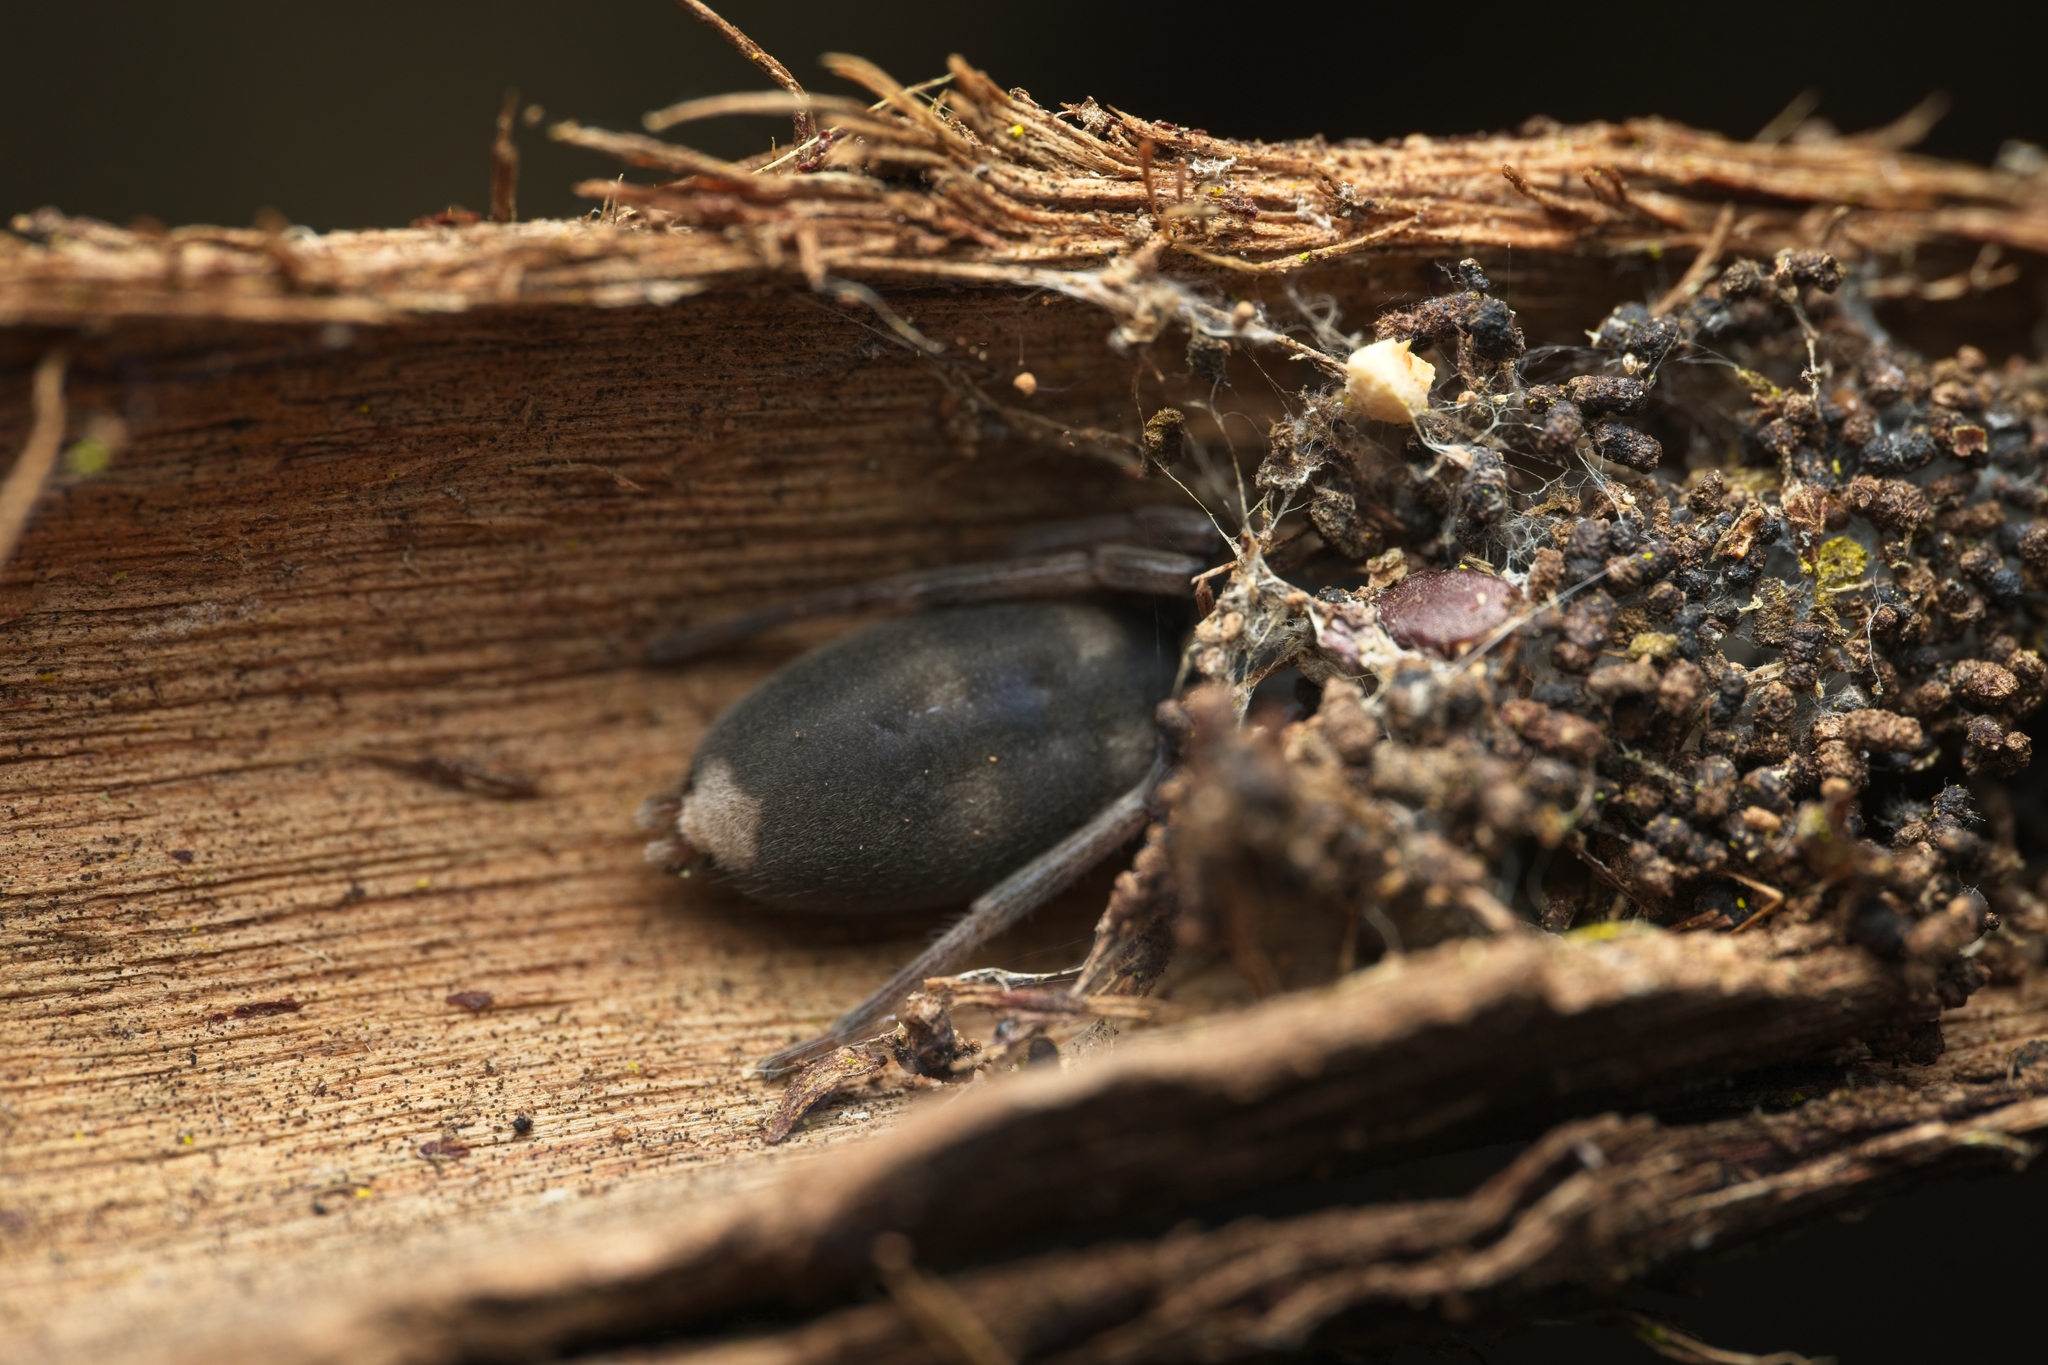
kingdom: Animalia
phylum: Arthropoda
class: Arachnida
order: Araneae
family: Lamponidae
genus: Lampona
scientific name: Lampona murina
